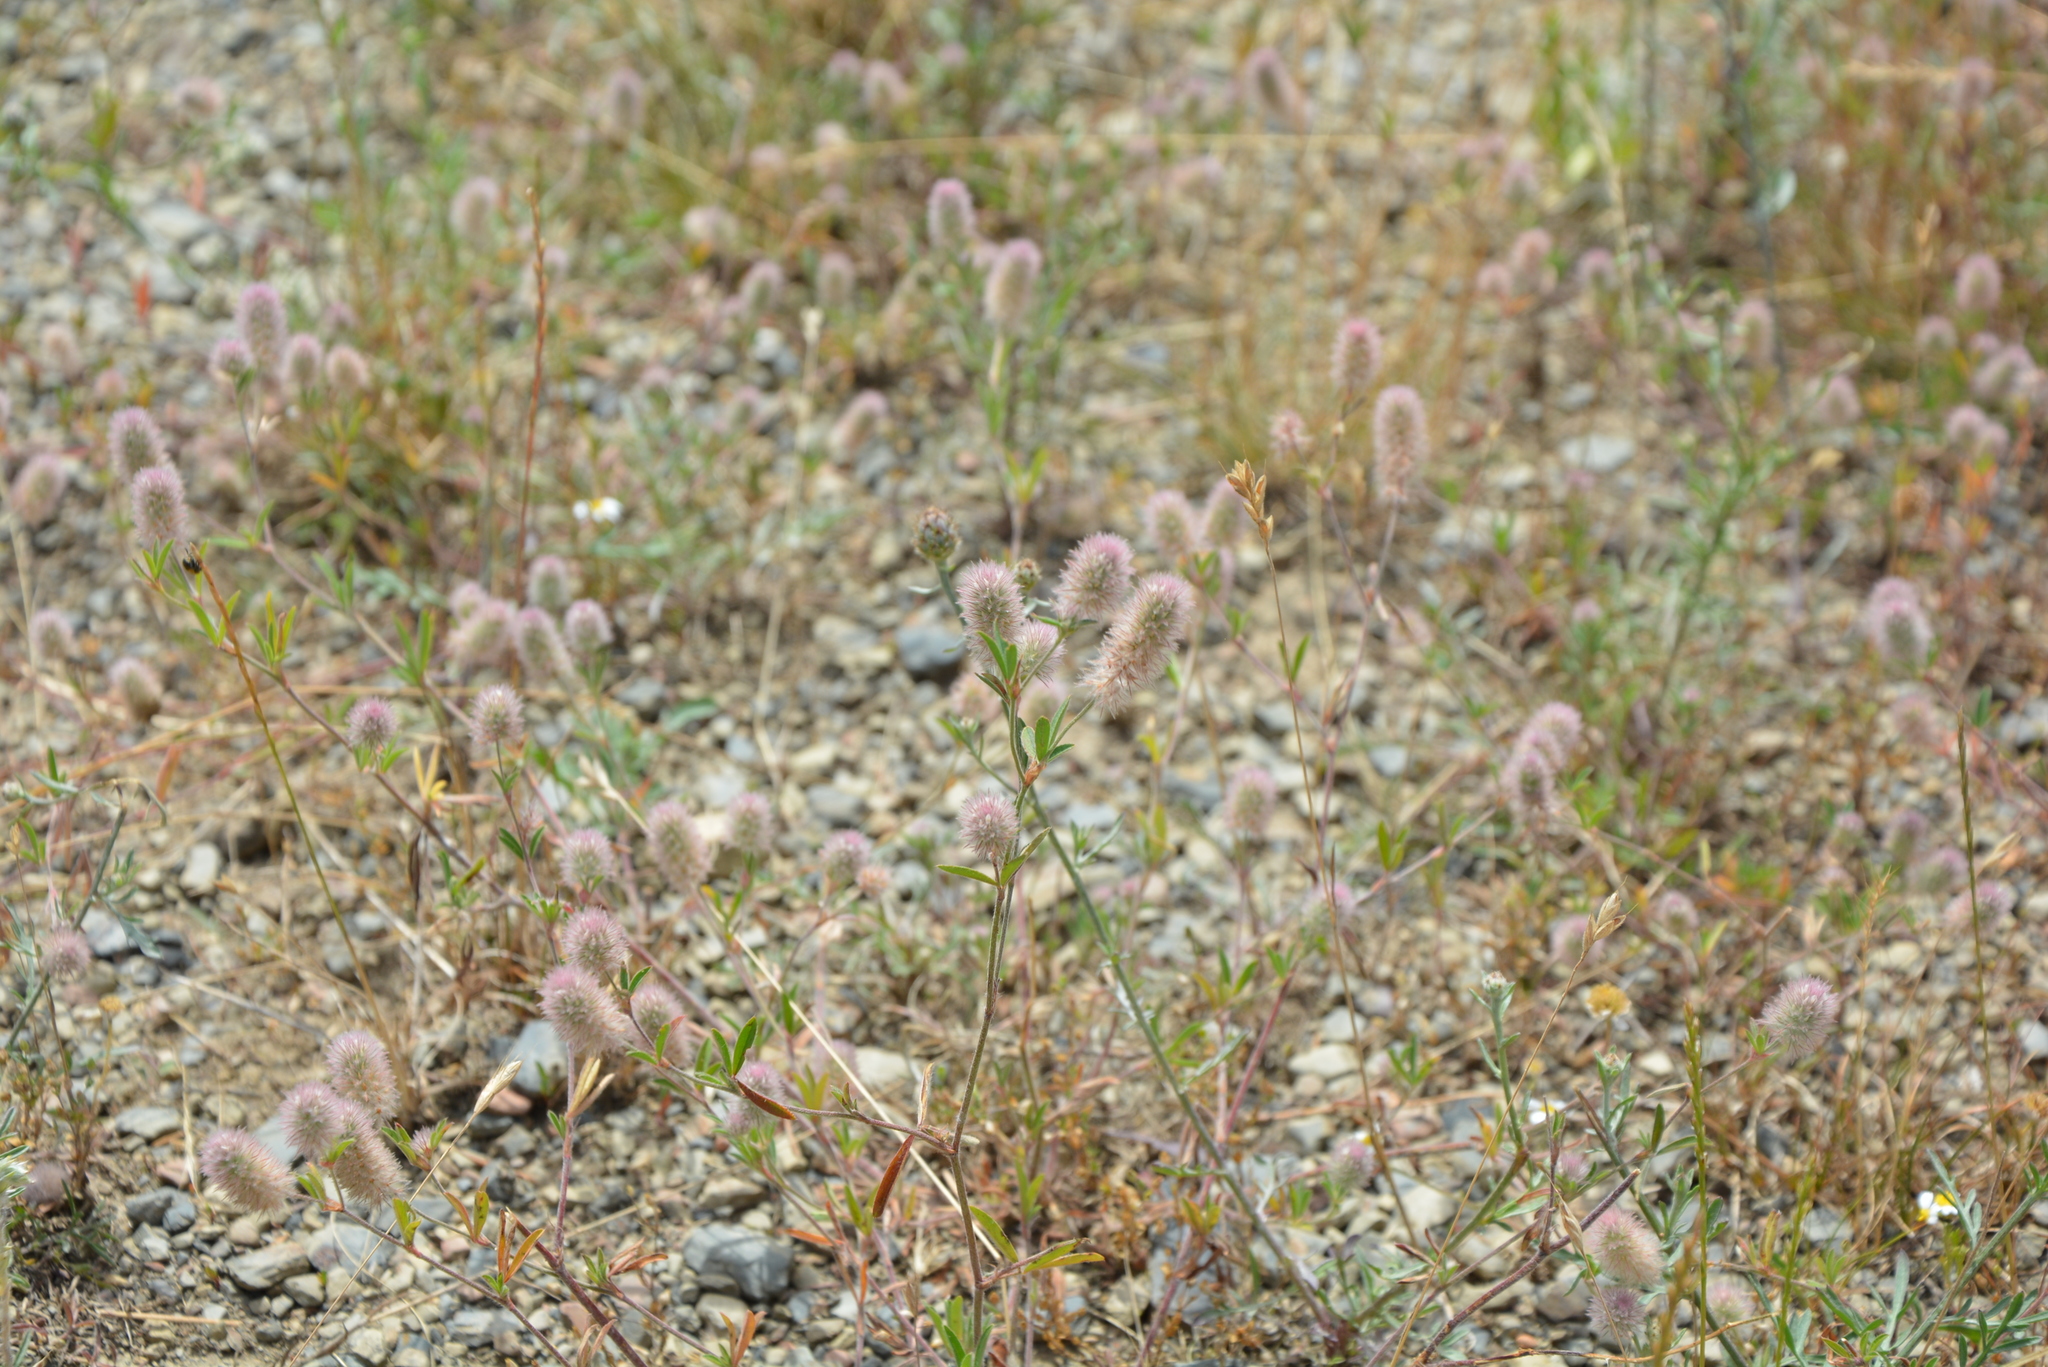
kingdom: Plantae
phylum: Tracheophyta
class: Magnoliopsida
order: Fabales
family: Fabaceae
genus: Trifolium
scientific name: Trifolium arvense
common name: Hare's-foot clover
